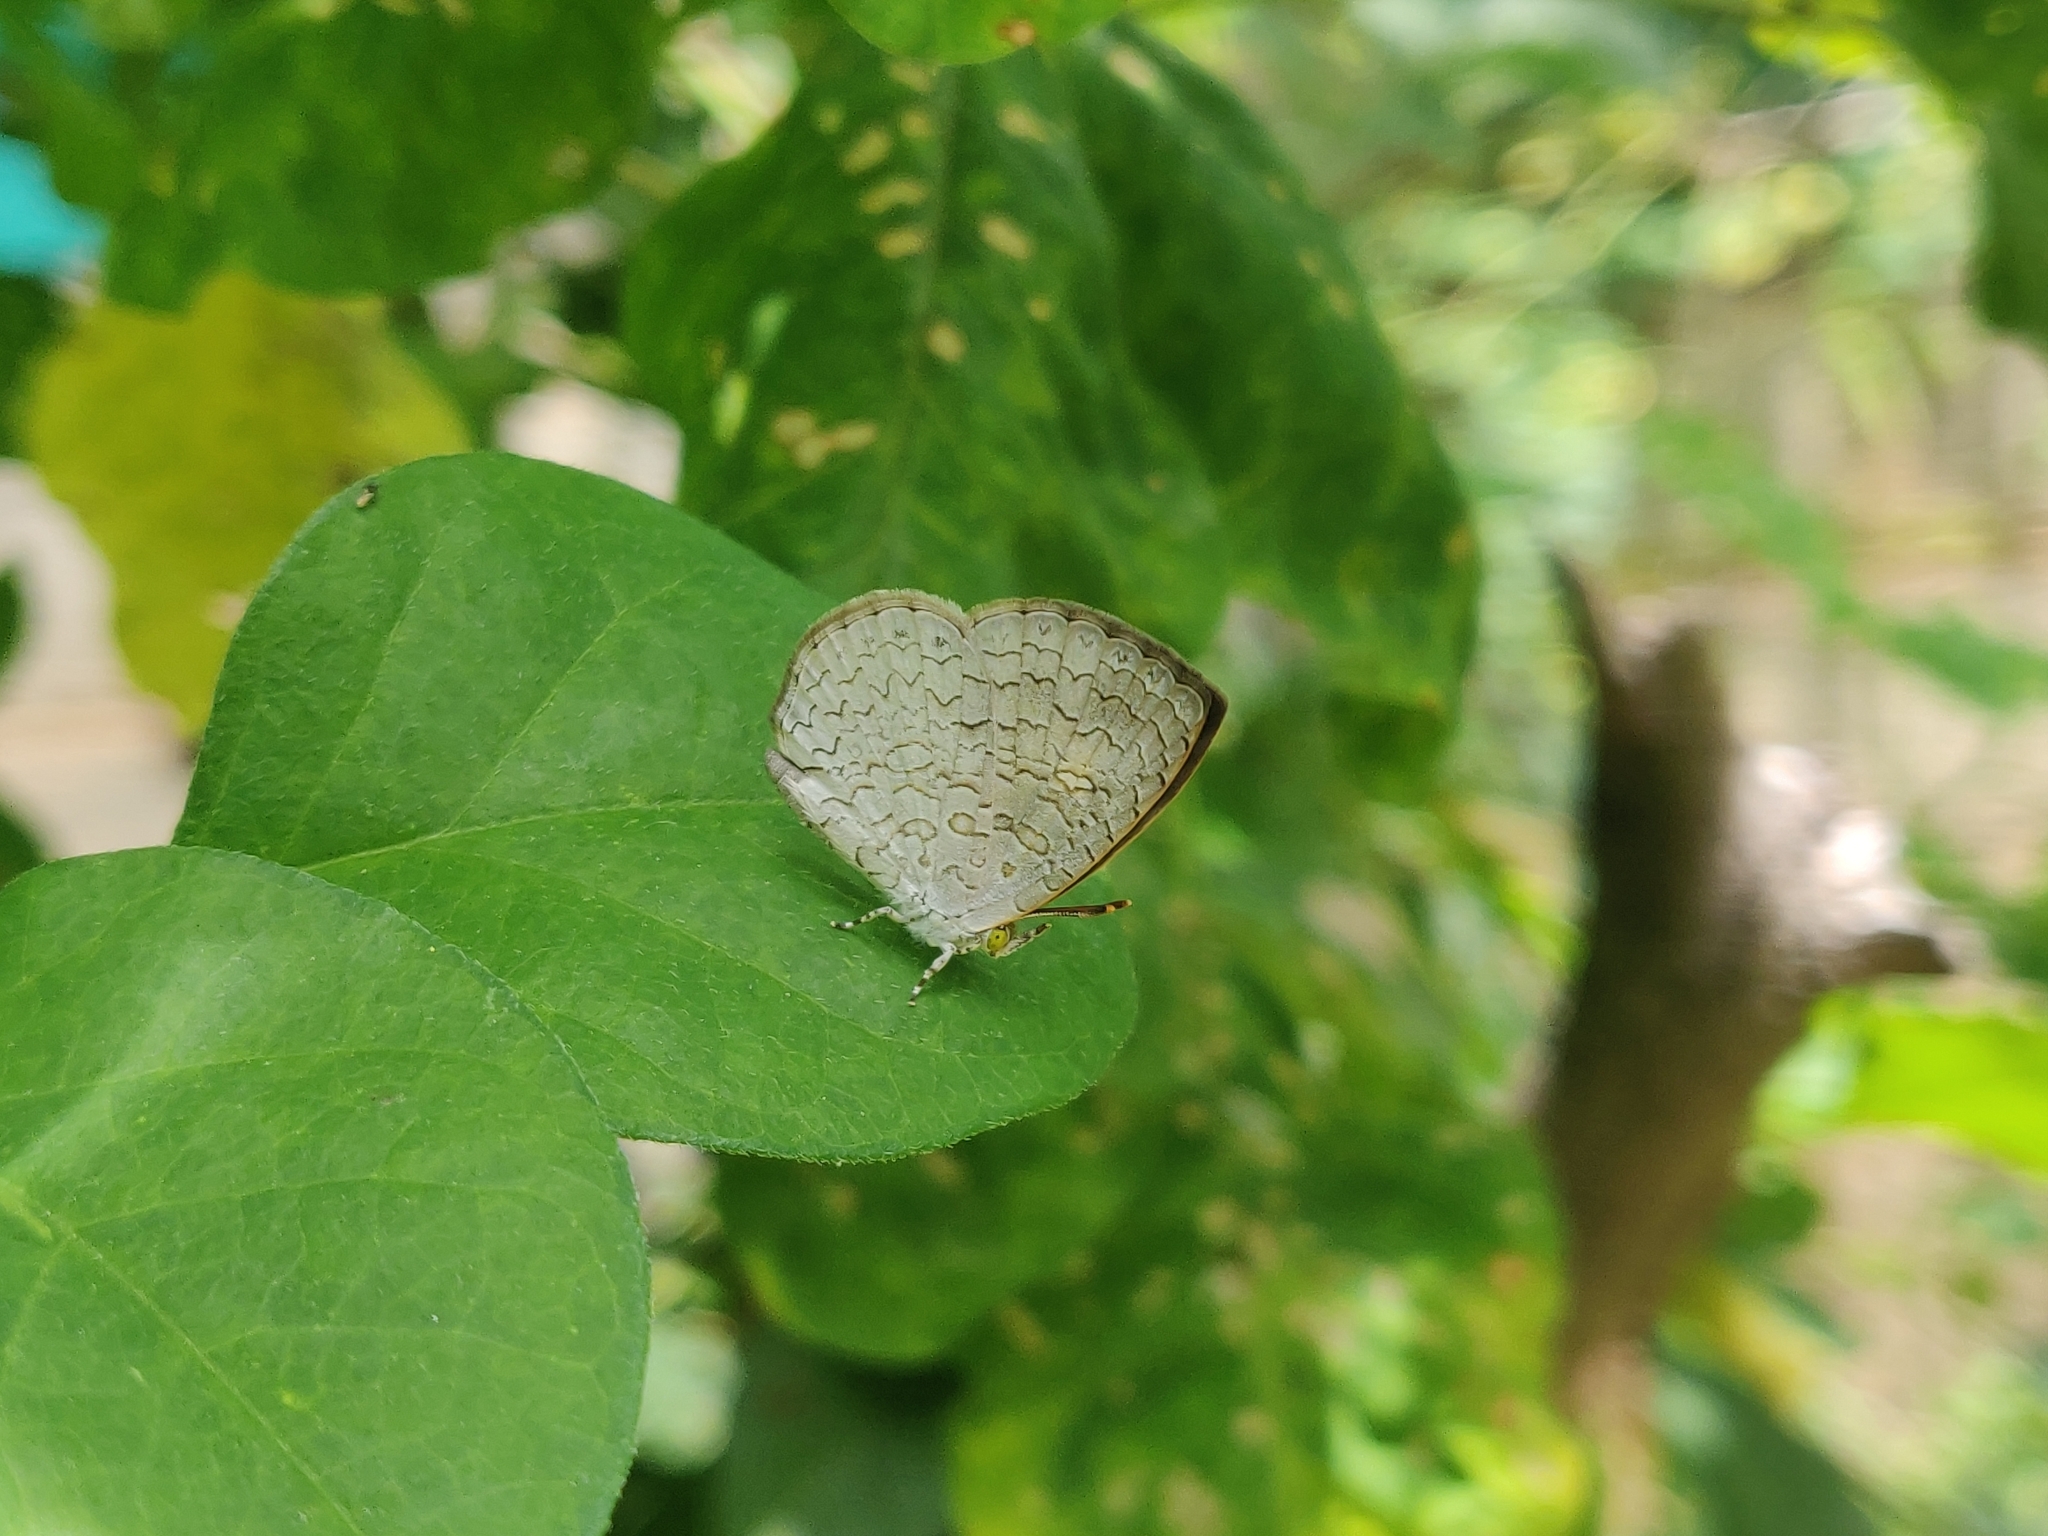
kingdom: Animalia
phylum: Arthropoda
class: Insecta
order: Lepidoptera
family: Lycaenidae
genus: Spalgis
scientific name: Spalgis epius
